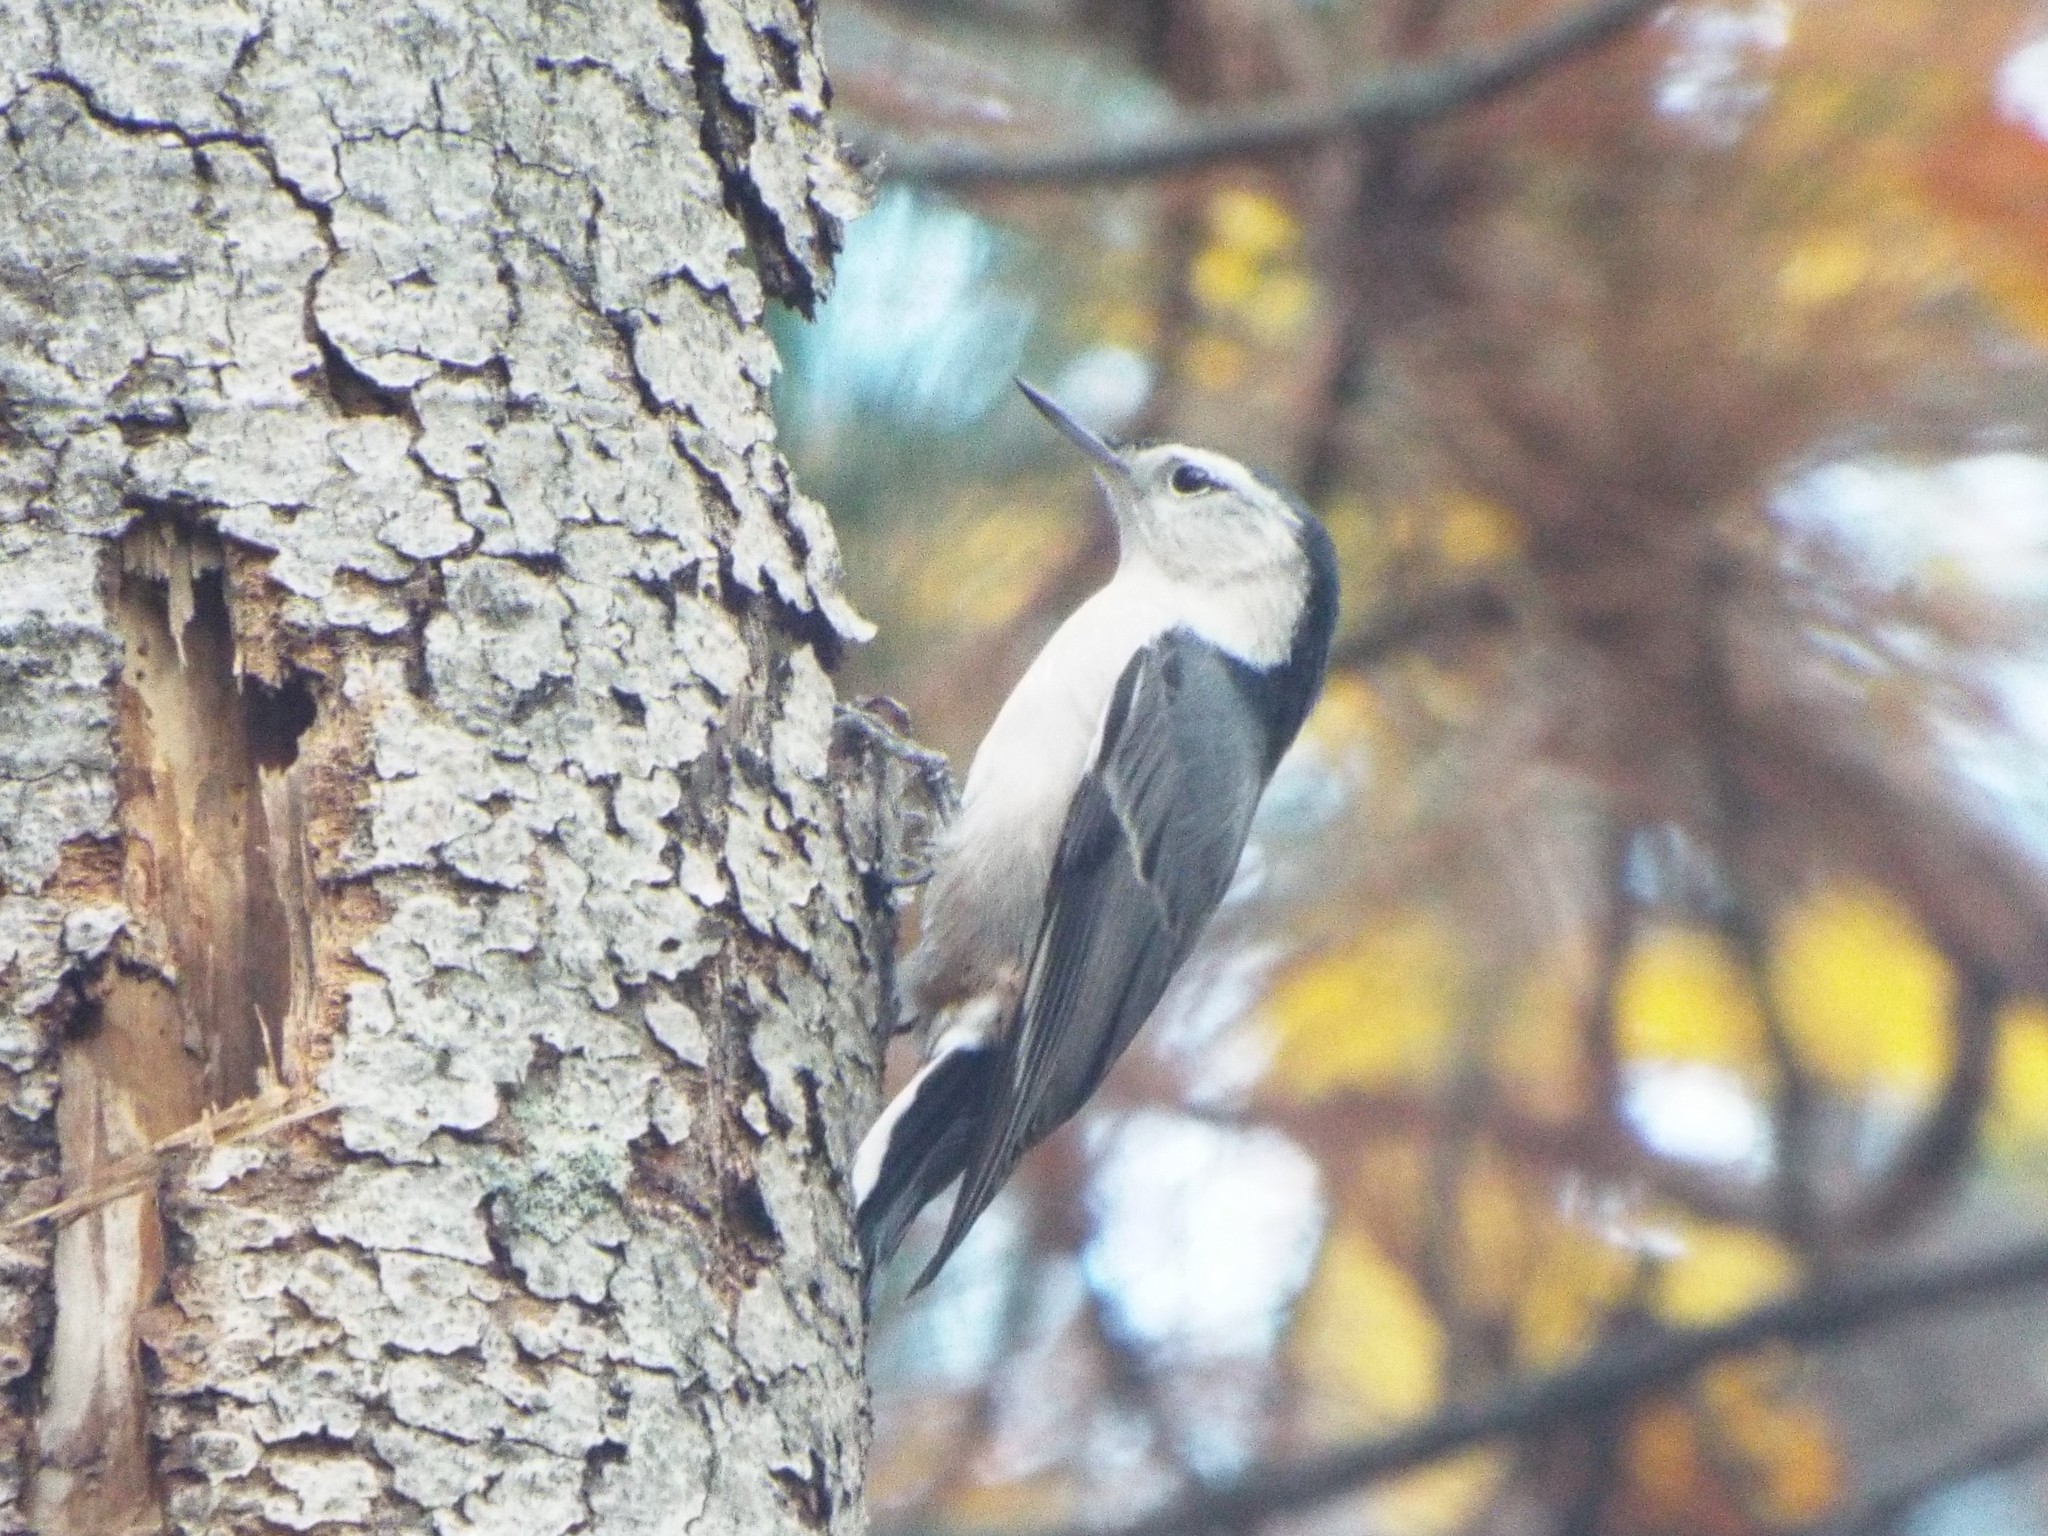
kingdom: Animalia
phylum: Chordata
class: Aves
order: Passeriformes
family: Sittidae
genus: Sitta
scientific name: Sitta carolinensis
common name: White-breasted nuthatch
